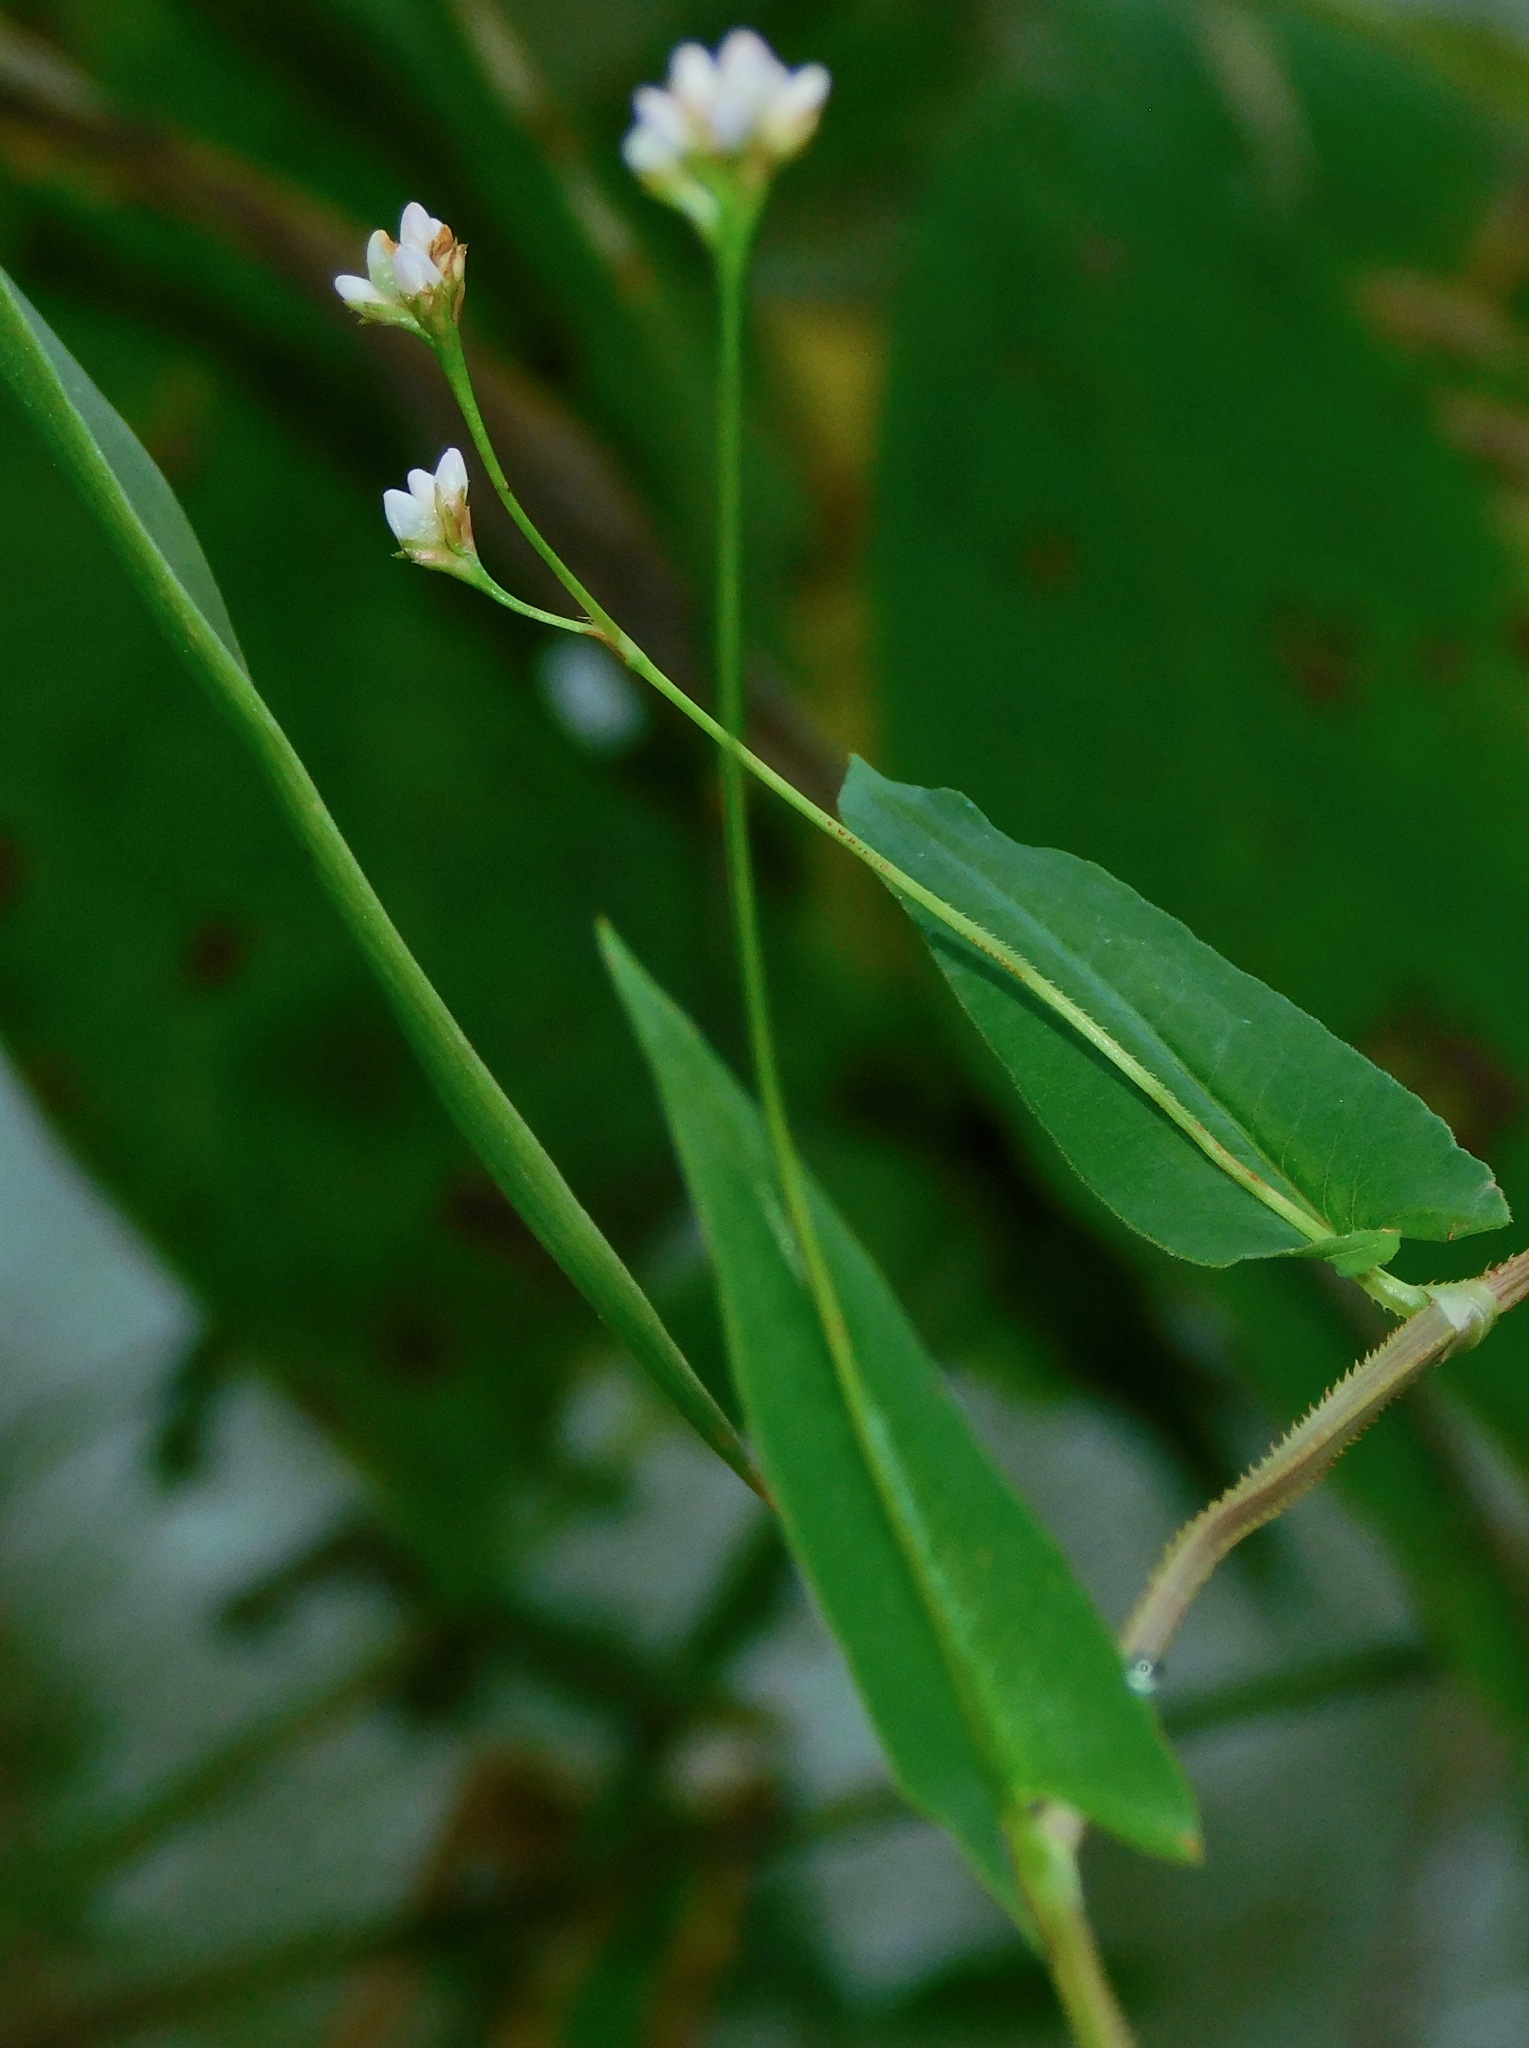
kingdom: Plantae
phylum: Tracheophyta
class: Magnoliopsida
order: Caryophyllales
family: Polygonaceae
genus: Persicaria
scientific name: Persicaria sagittata
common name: American tearthumb
